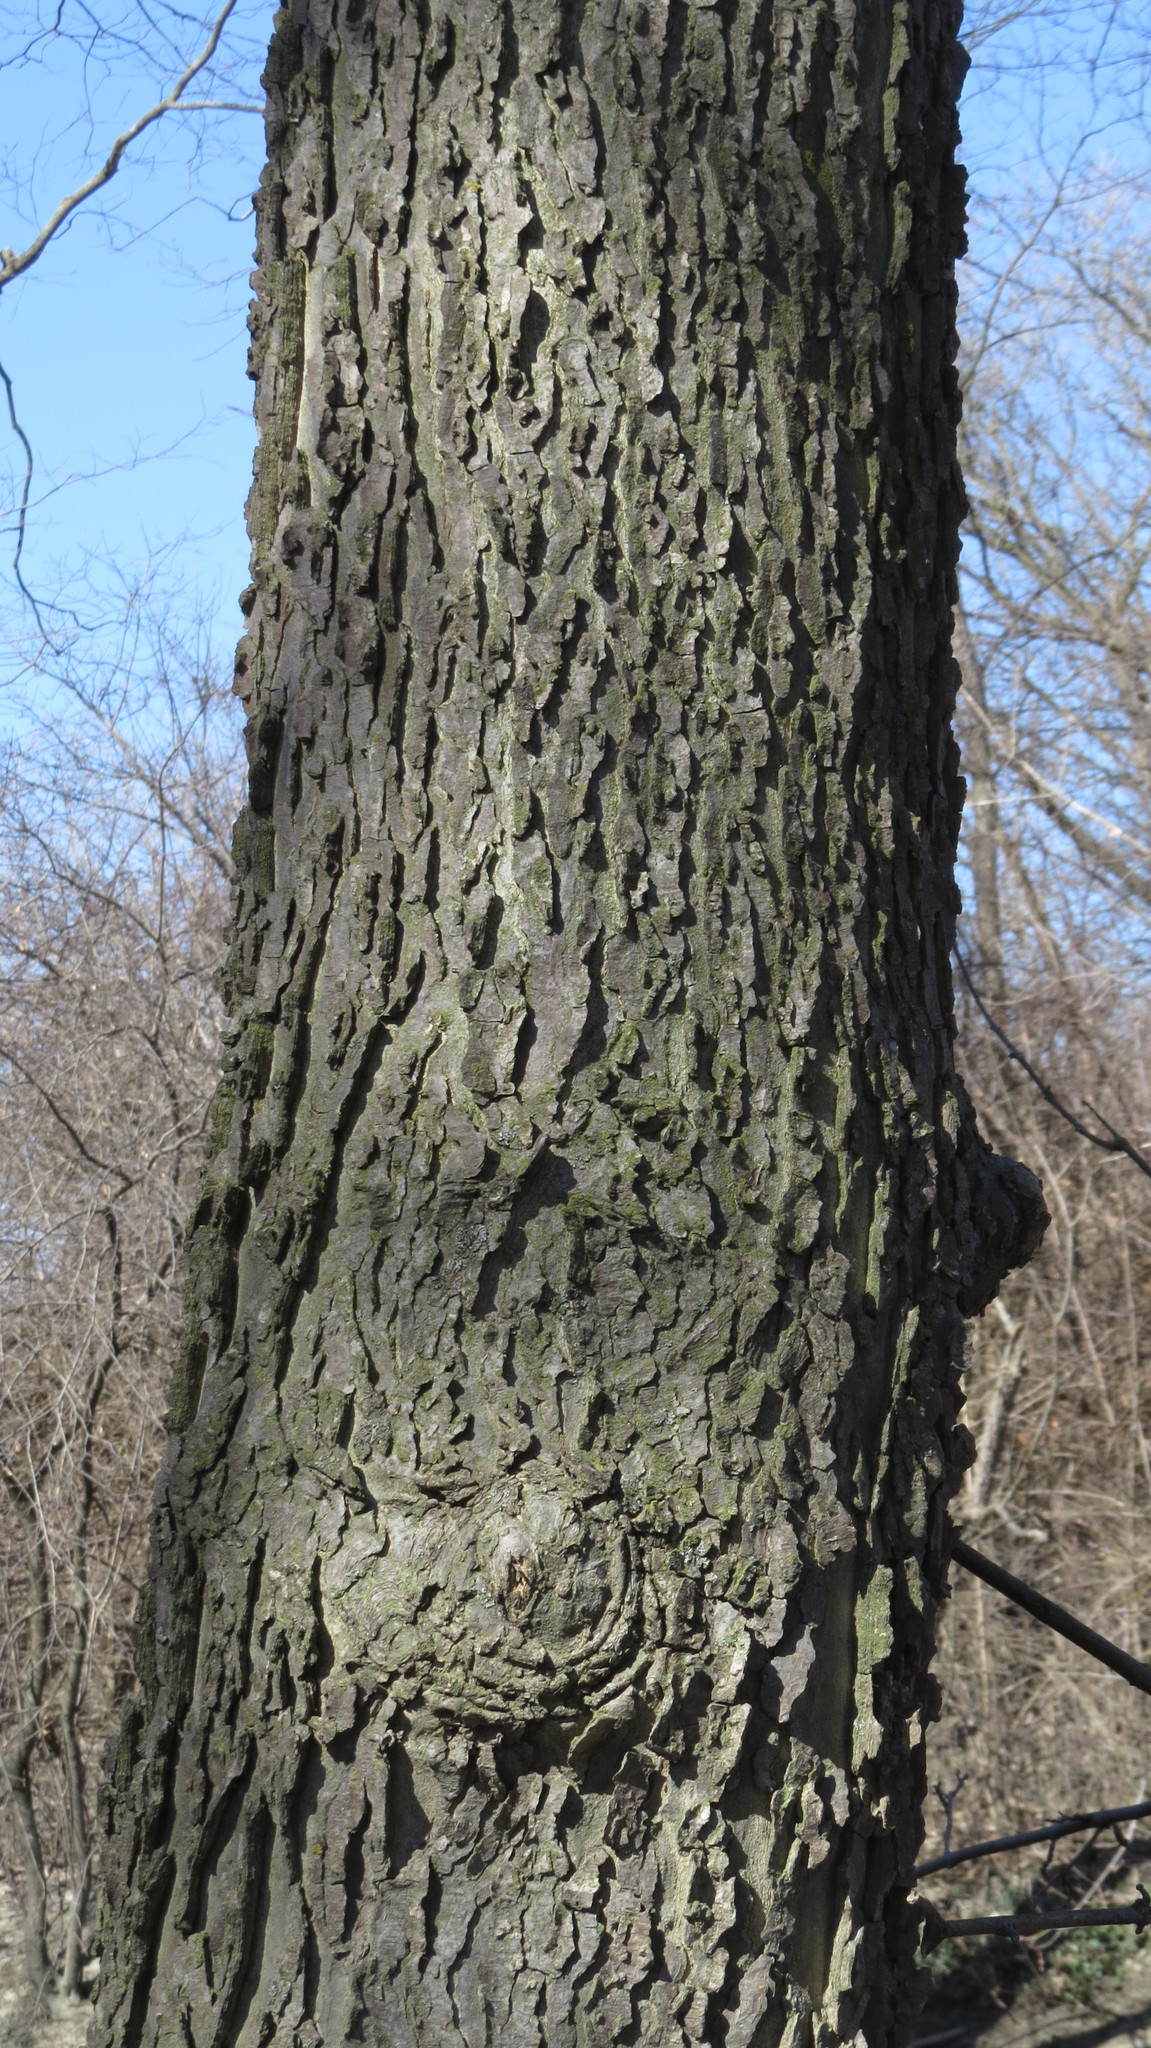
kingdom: Plantae
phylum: Tracheophyta
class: Magnoliopsida
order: Rosales
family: Cannabaceae
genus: Celtis
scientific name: Celtis occidentalis
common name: Common hackberry
